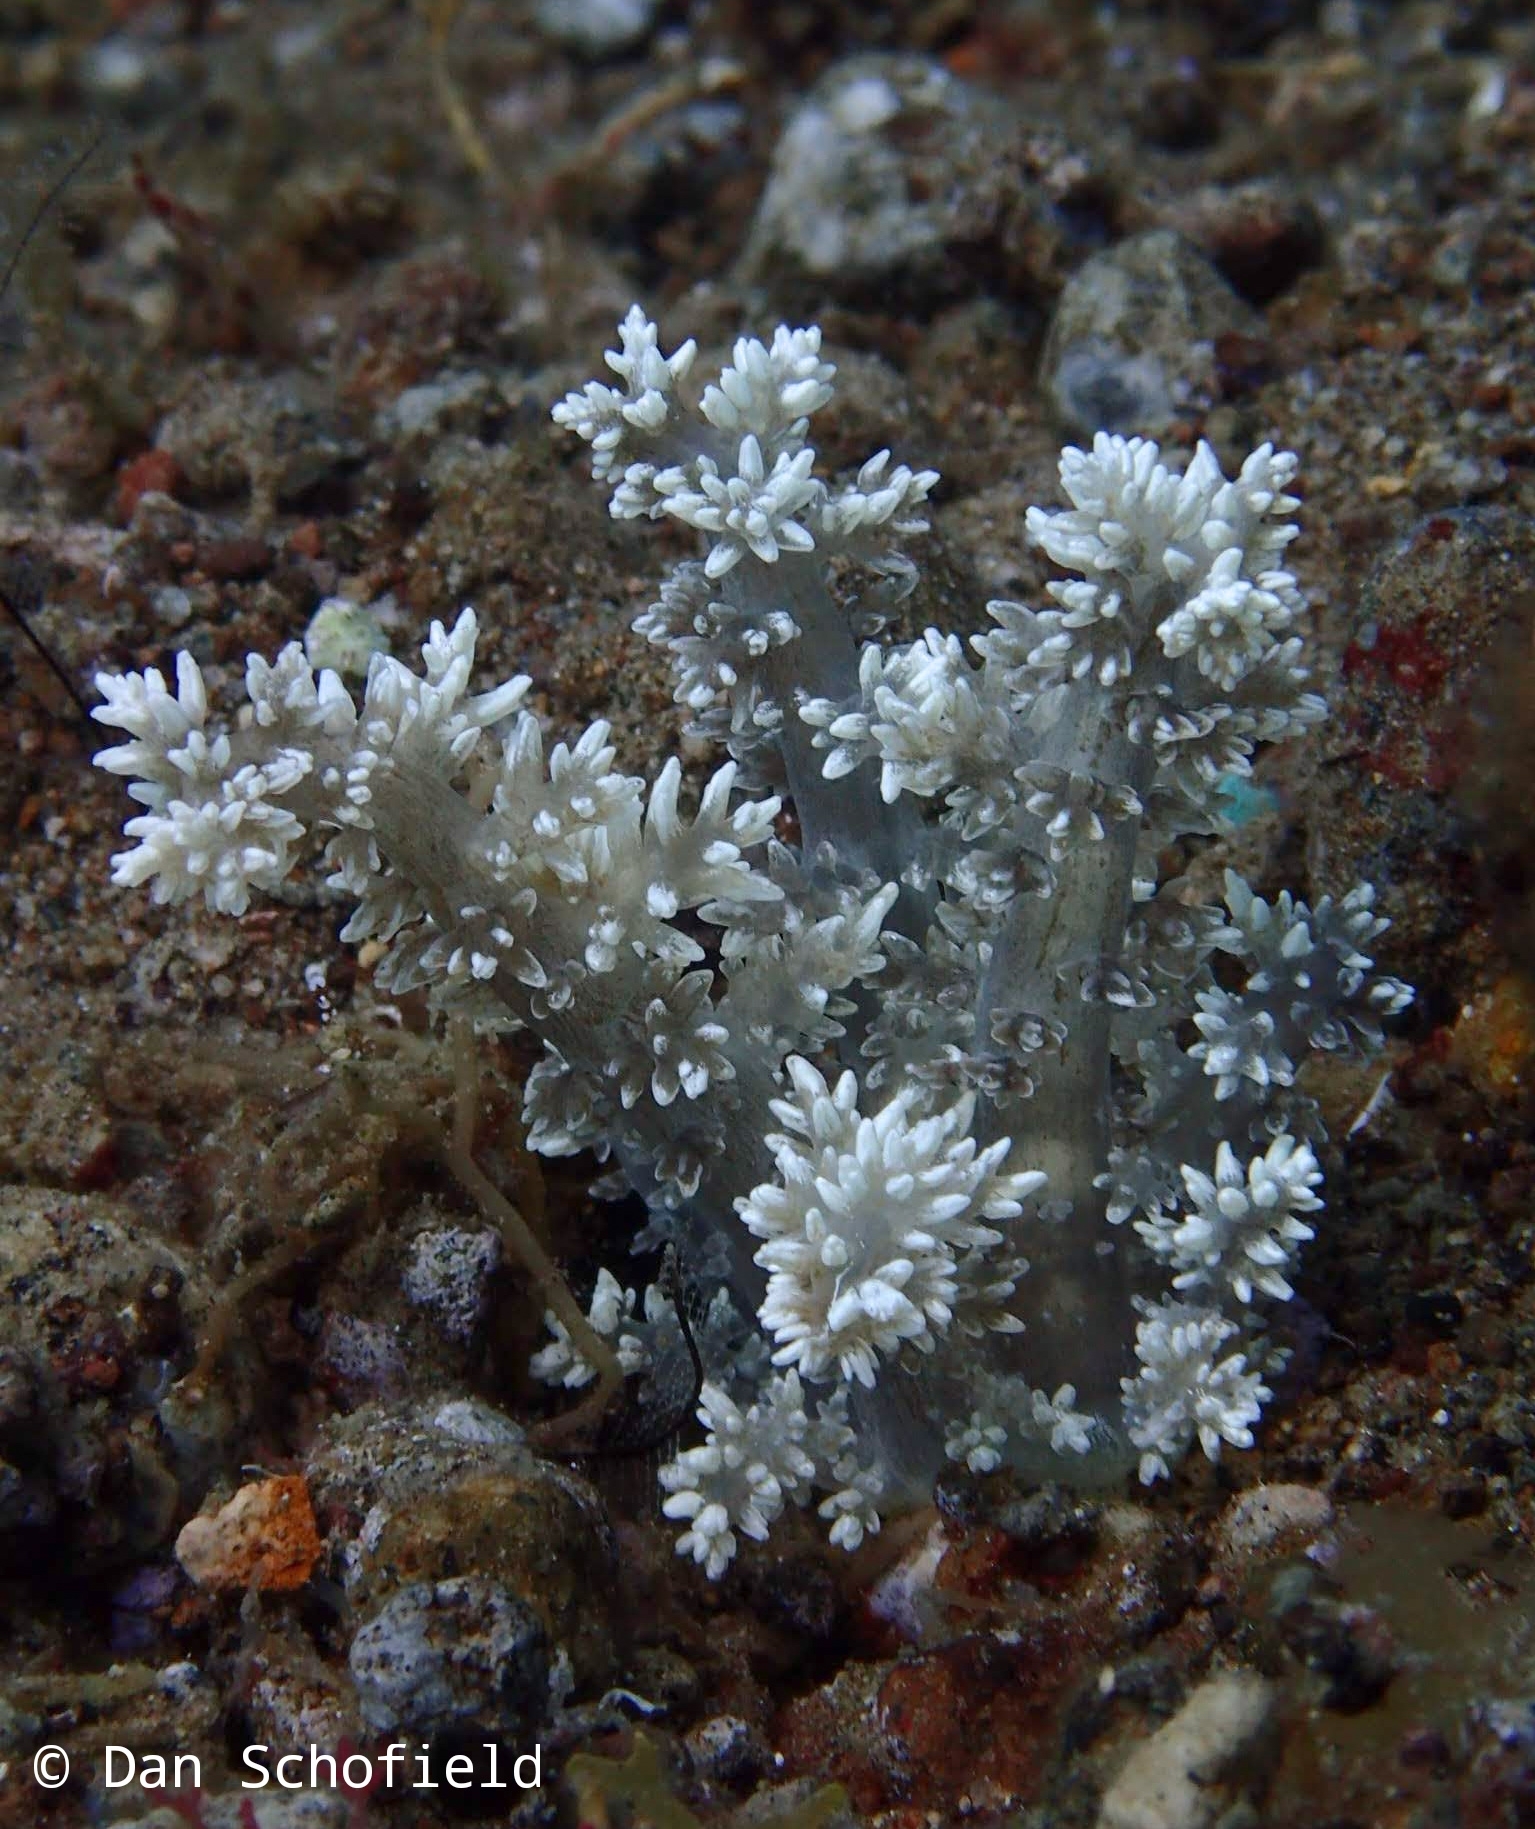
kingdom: Animalia
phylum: Cnidaria
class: Anthozoa
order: Actiniaria
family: Actinodendridae
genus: Actinodendron
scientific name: Actinodendron arboreum
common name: Tree anemone
